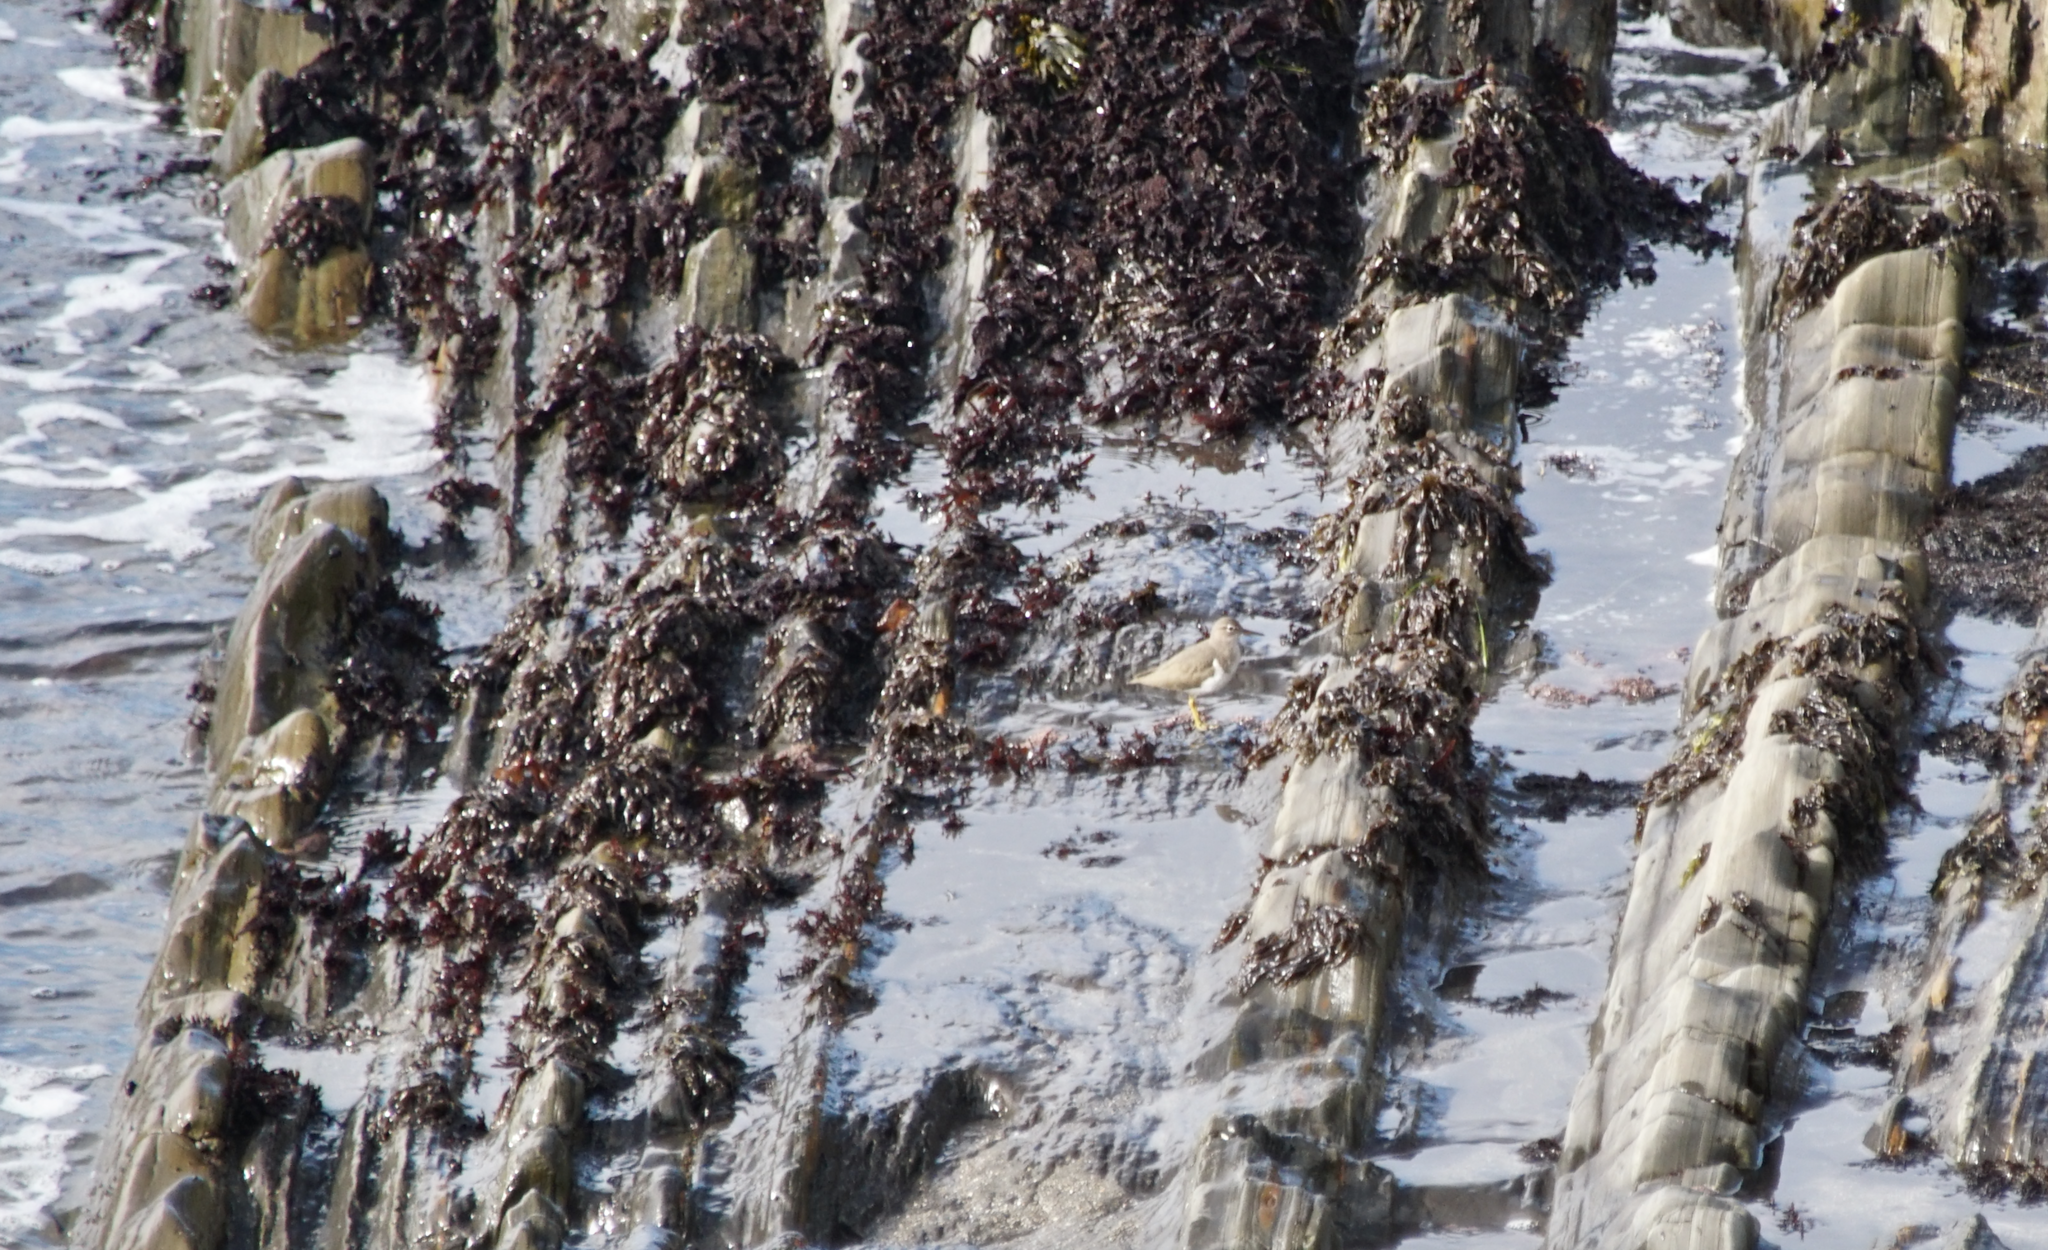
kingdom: Animalia
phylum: Chordata
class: Aves
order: Charadriiformes
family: Scolopacidae
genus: Tringa
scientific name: Tringa incana
